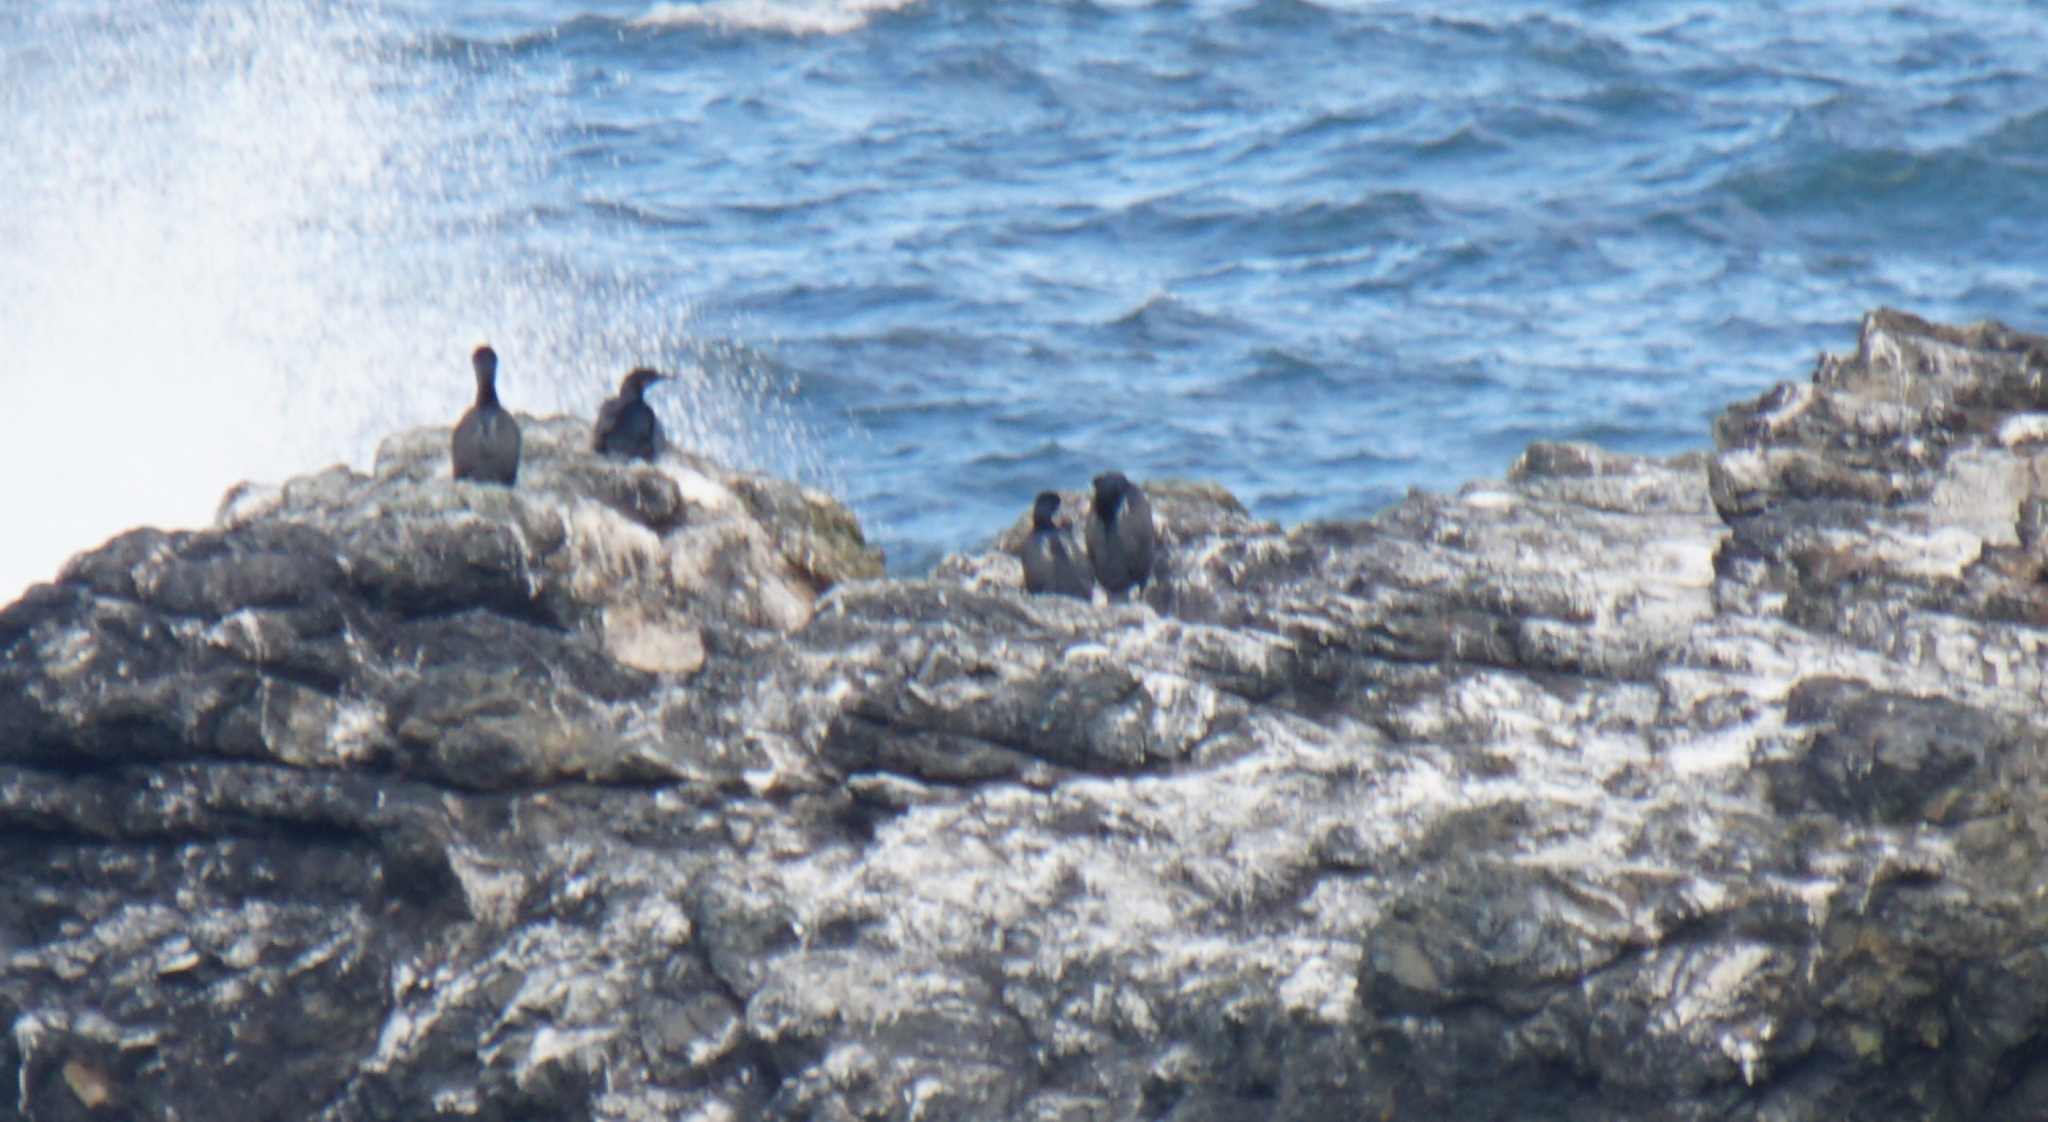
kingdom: Animalia
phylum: Chordata
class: Aves
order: Suliformes
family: Phalacrocoracidae
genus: Urile
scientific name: Urile penicillatus
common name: Brandt's cormorant
